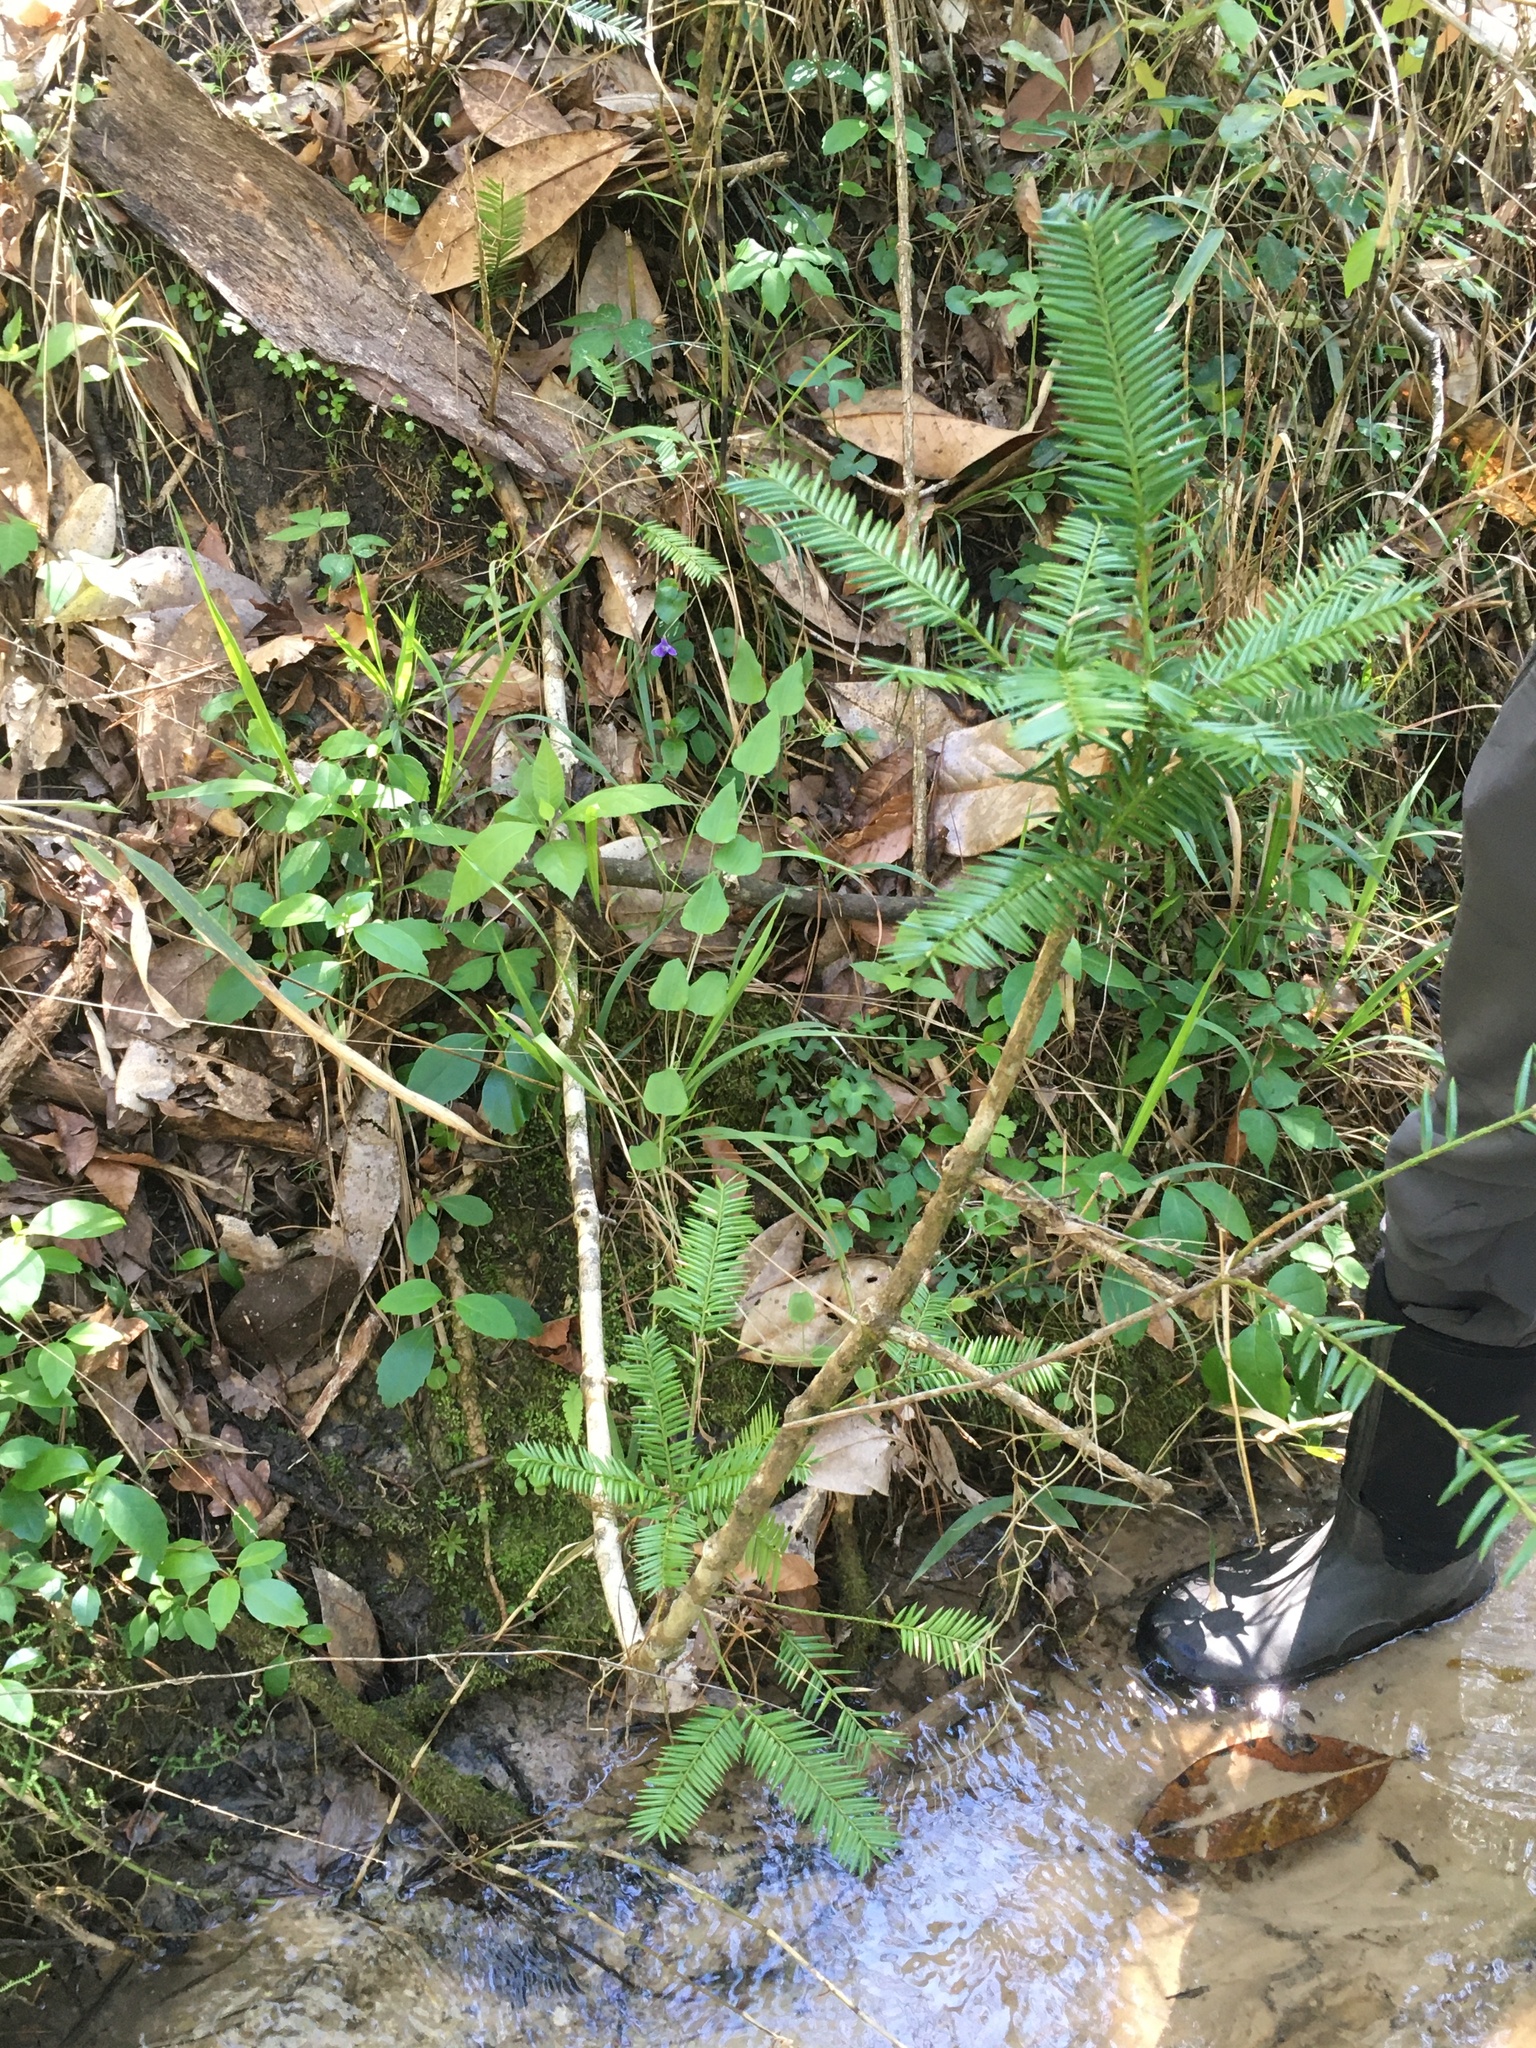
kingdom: Plantae
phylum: Tracheophyta
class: Pinopsida
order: Pinales
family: Taxaceae
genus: Torreya
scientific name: Torreya taxifolia
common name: Florida torreya
